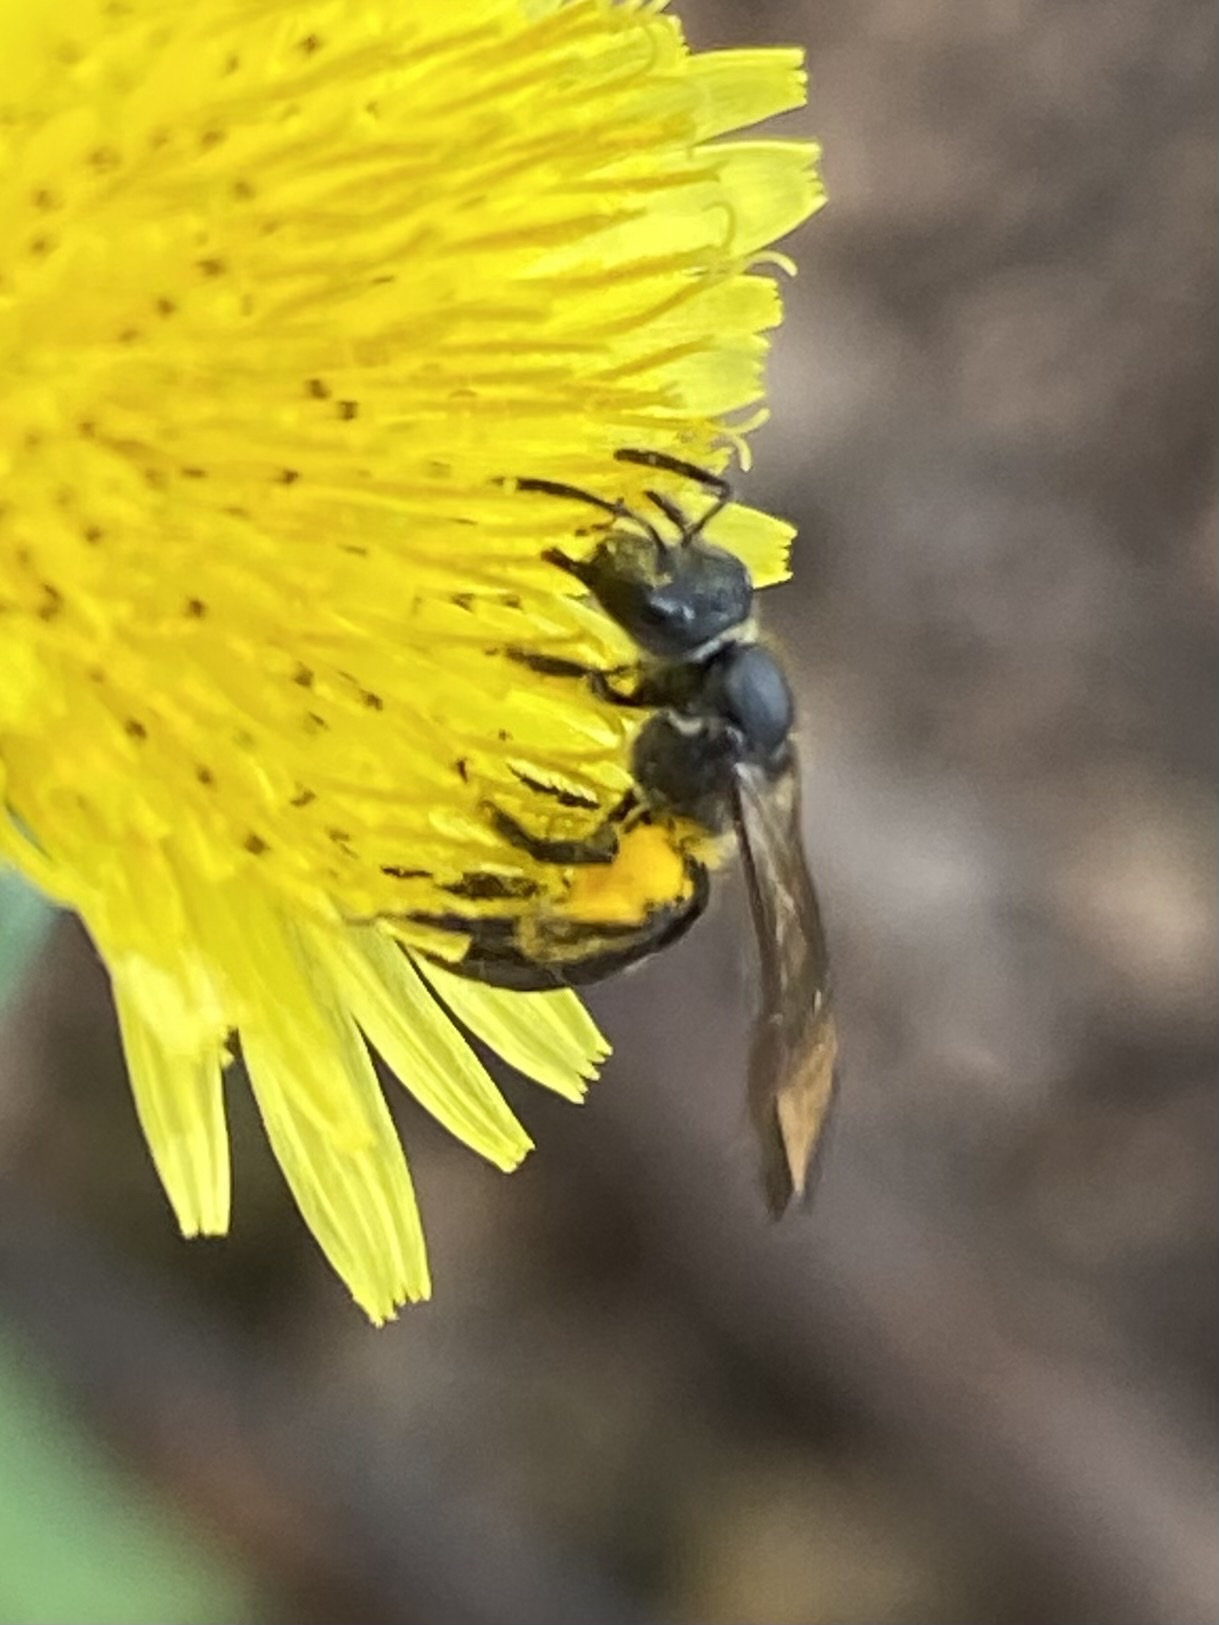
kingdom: Animalia
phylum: Arthropoda
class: Insecta
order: Hymenoptera
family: Halictidae
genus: Augochlora
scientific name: Augochlora nigrocyanea
